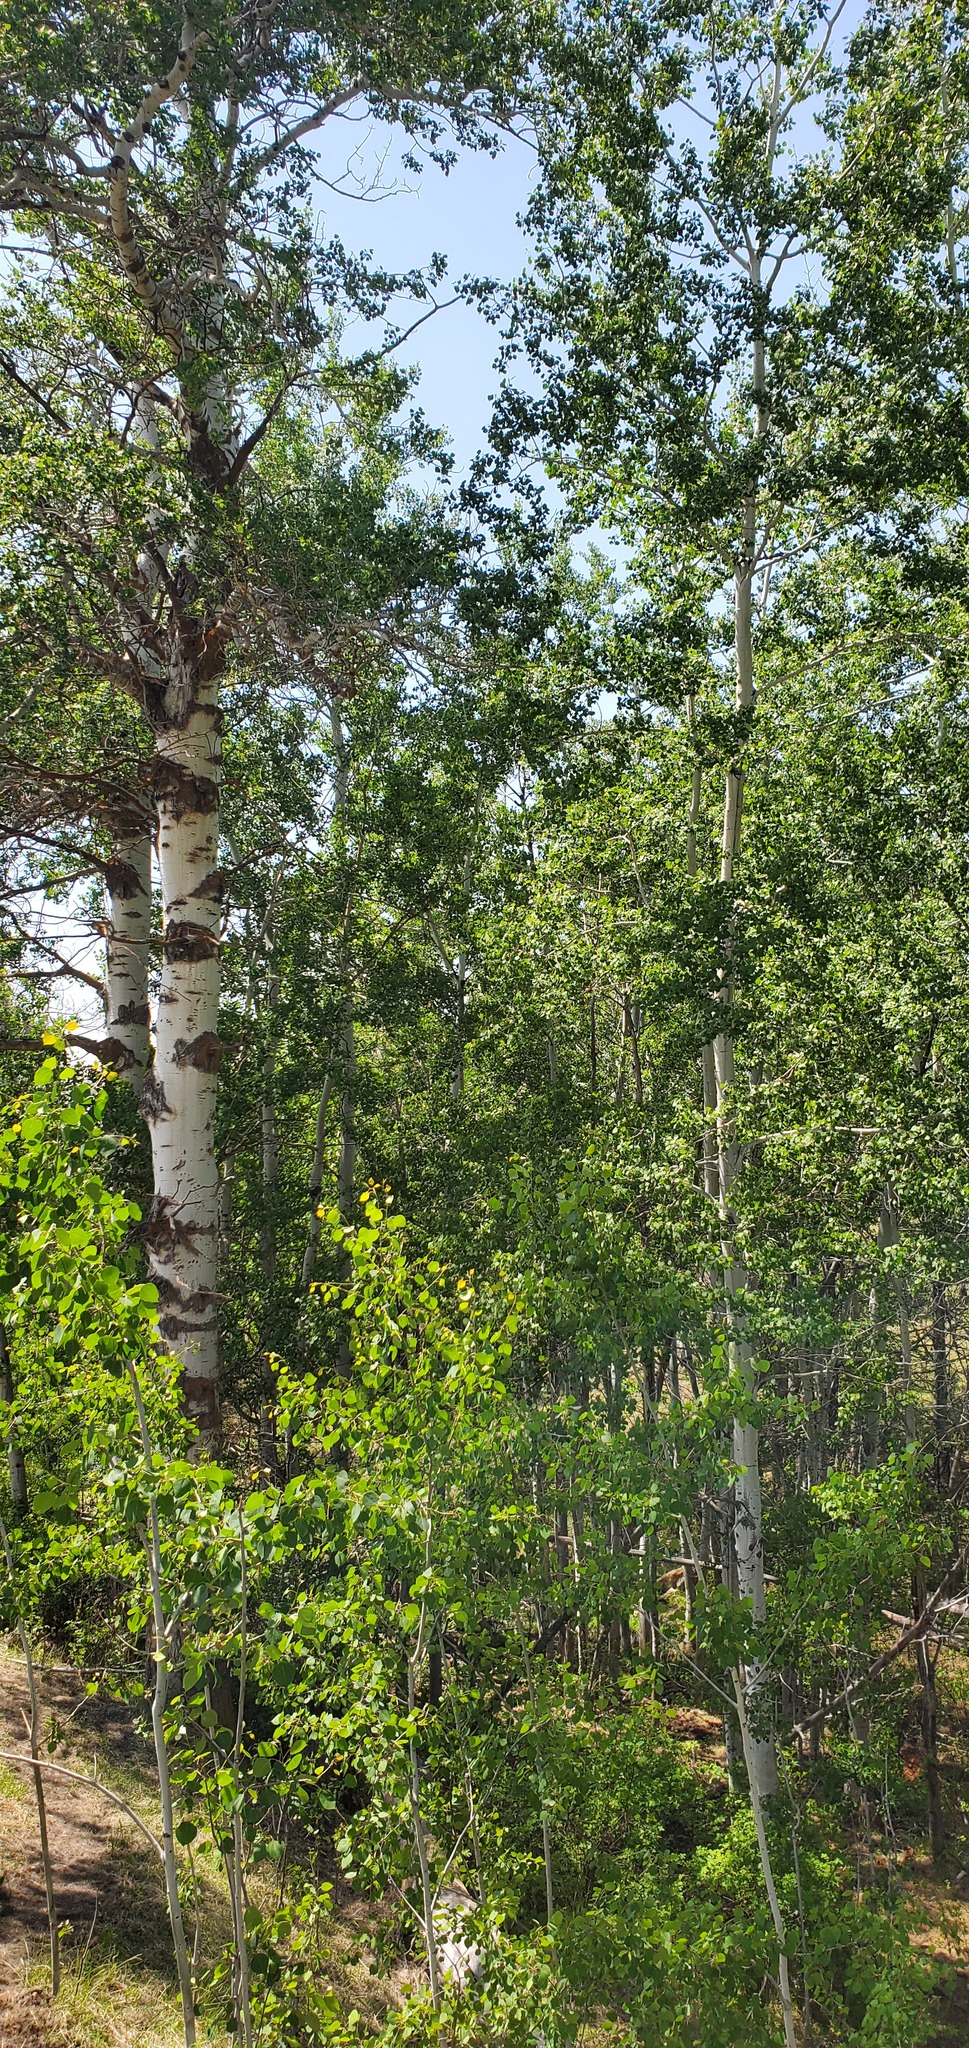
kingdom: Plantae
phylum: Tracheophyta
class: Magnoliopsida
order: Malpighiales
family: Salicaceae
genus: Populus
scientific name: Populus tremuloides
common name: Quaking aspen
